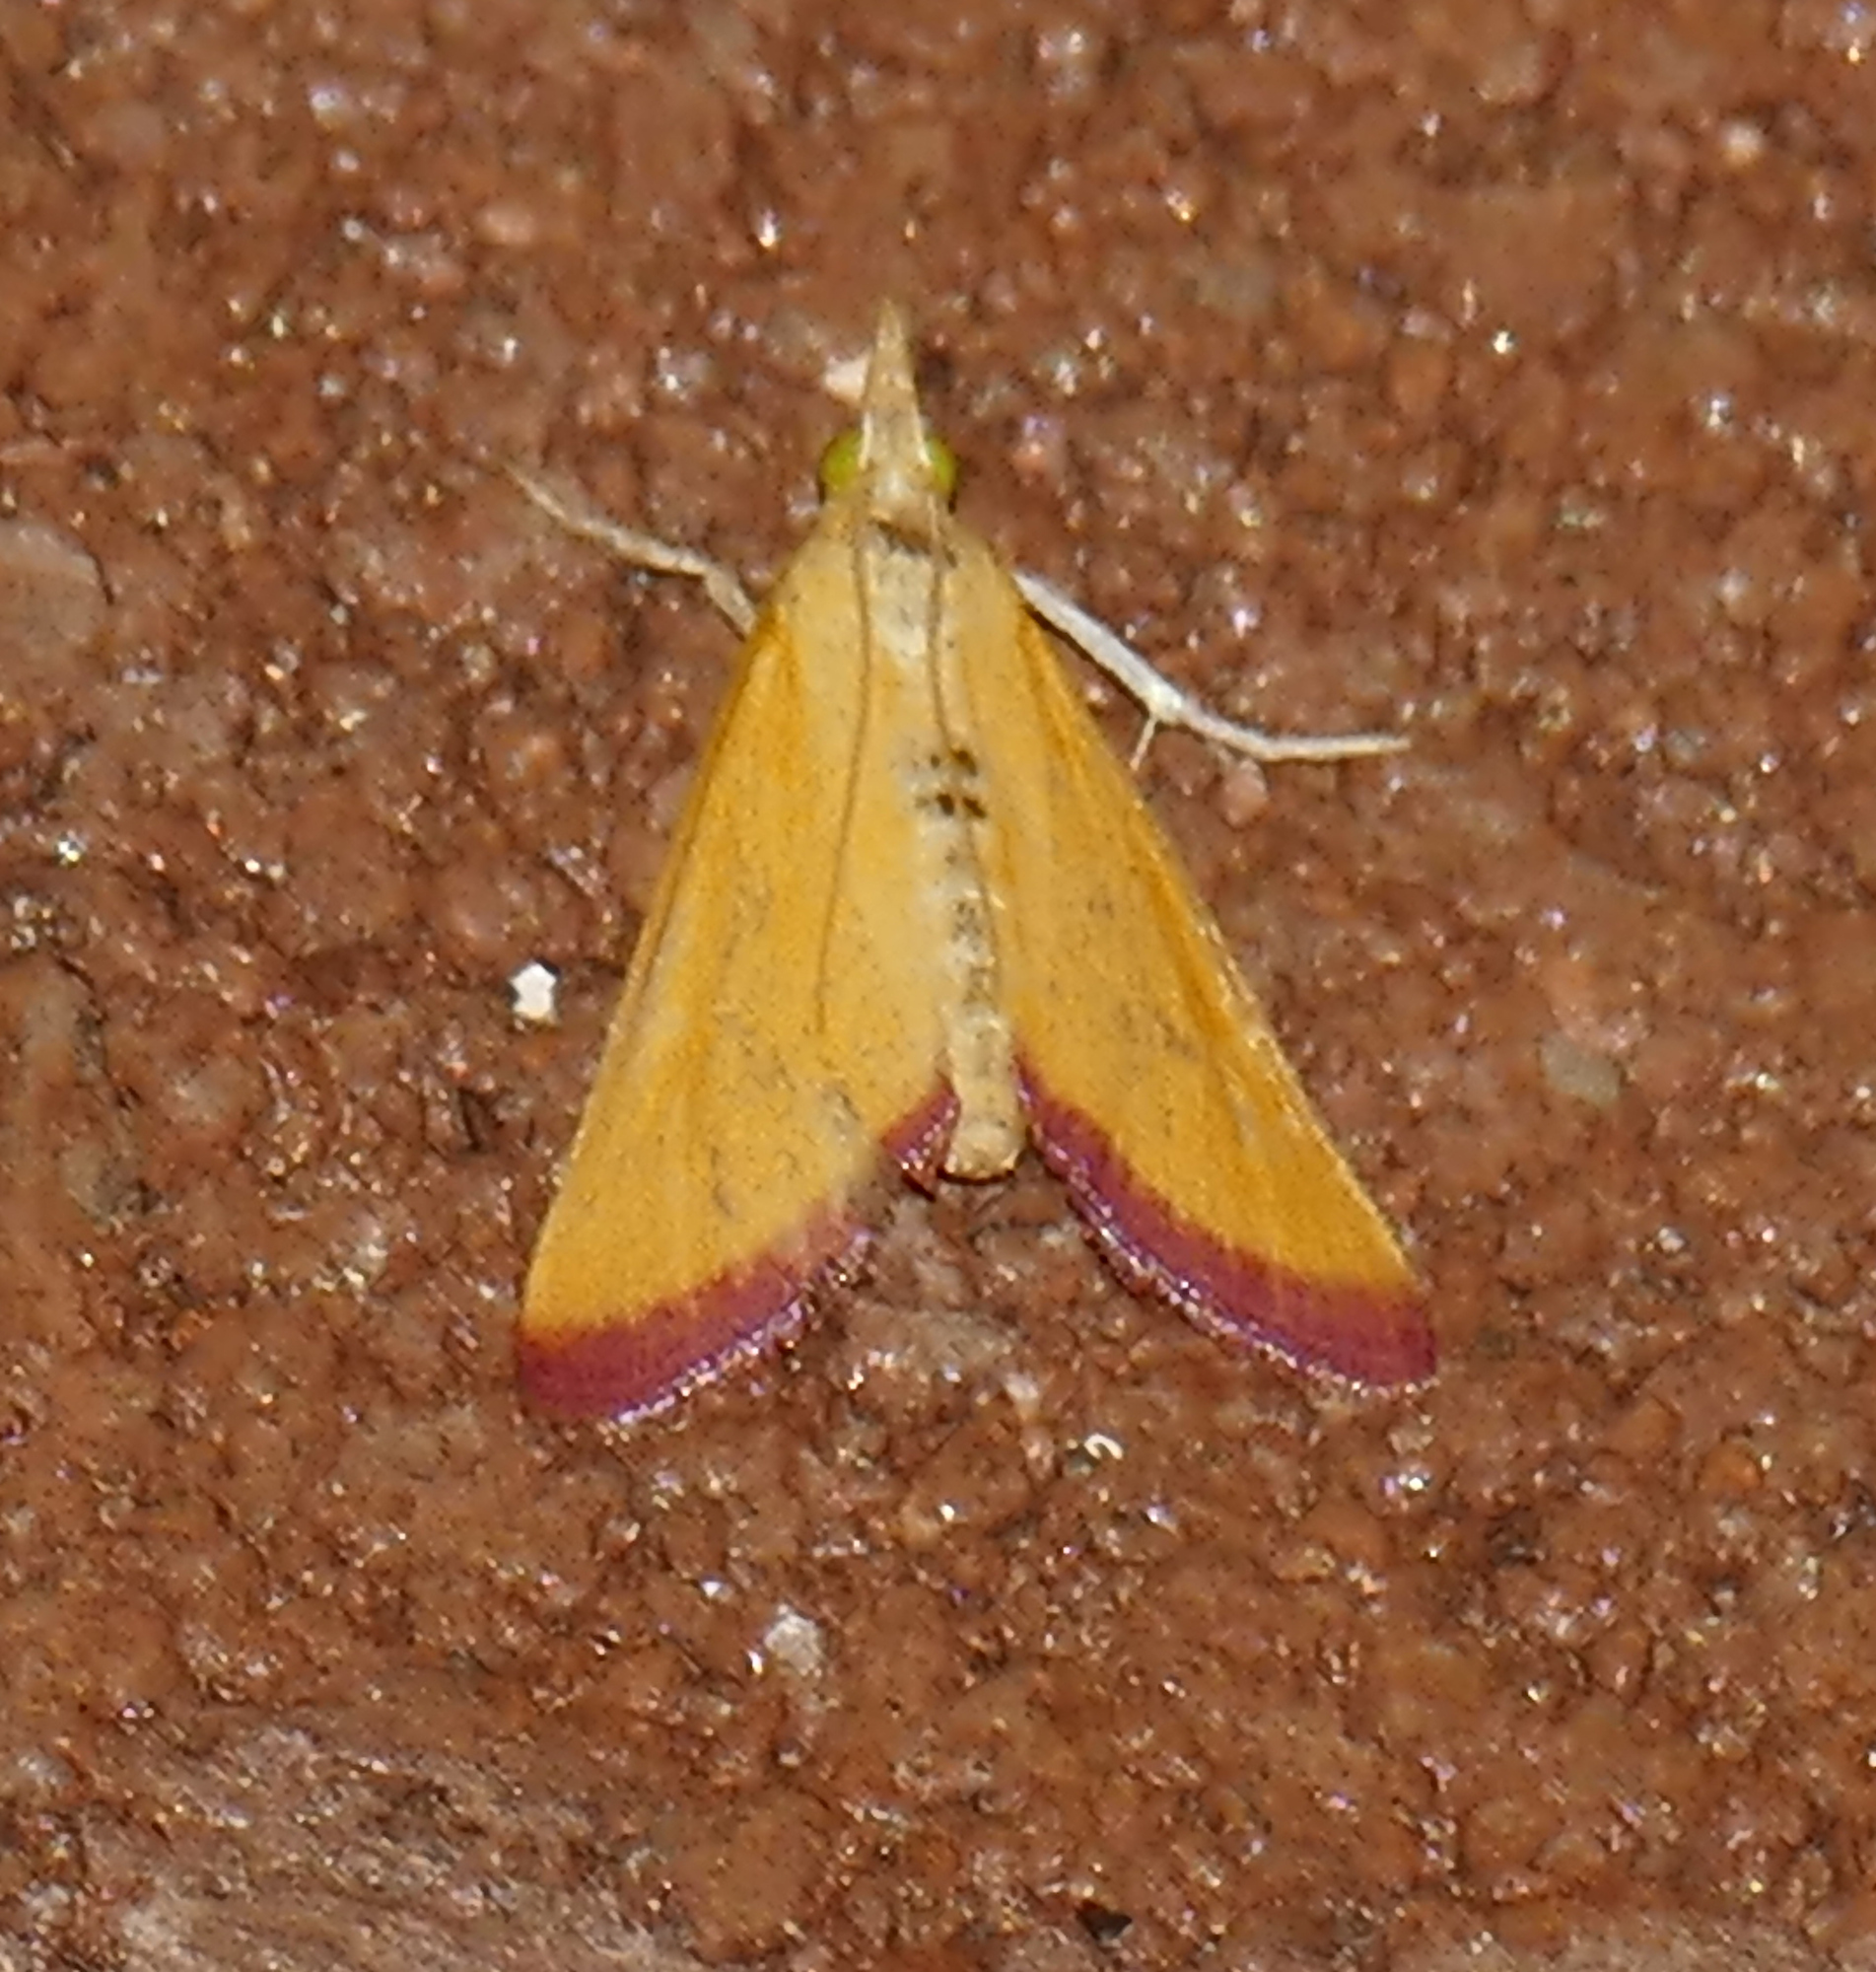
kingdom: Animalia
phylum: Arthropoda
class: Insecta
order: Lepidoptera
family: Crambidae
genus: Xanthostege
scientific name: Xanthostege plana
